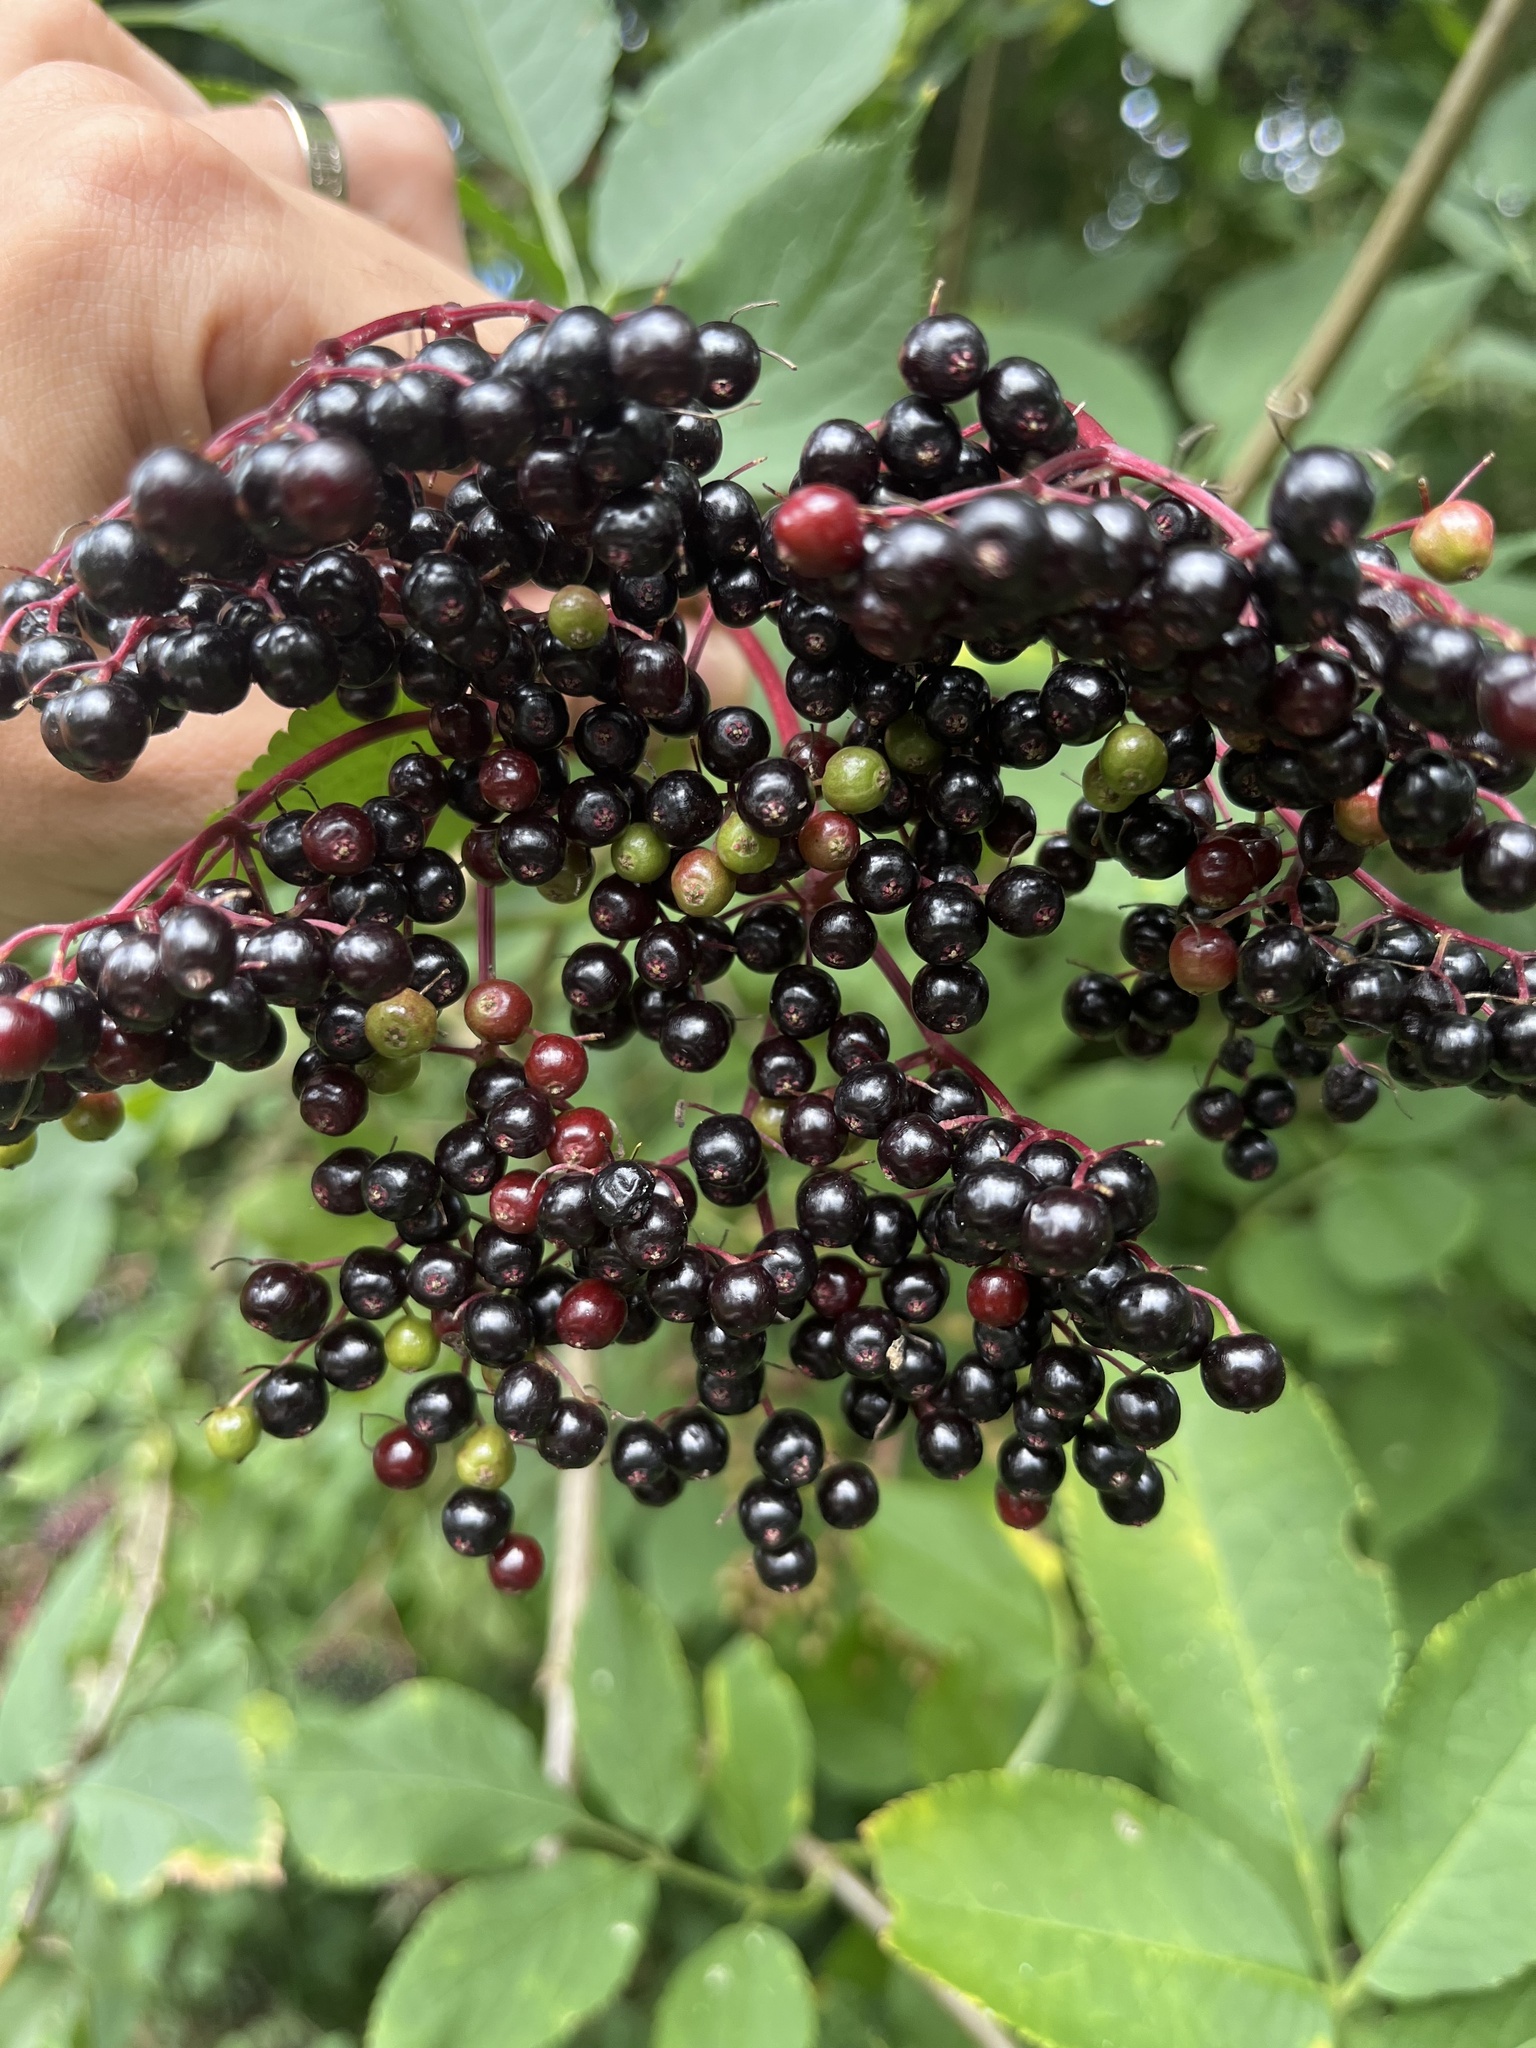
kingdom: Plantae
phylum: Tracheophyta
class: Magnoliopsida
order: Dipsacales
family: Viburnaceae
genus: Sambucus
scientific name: Sambucus nigra
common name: Elder
